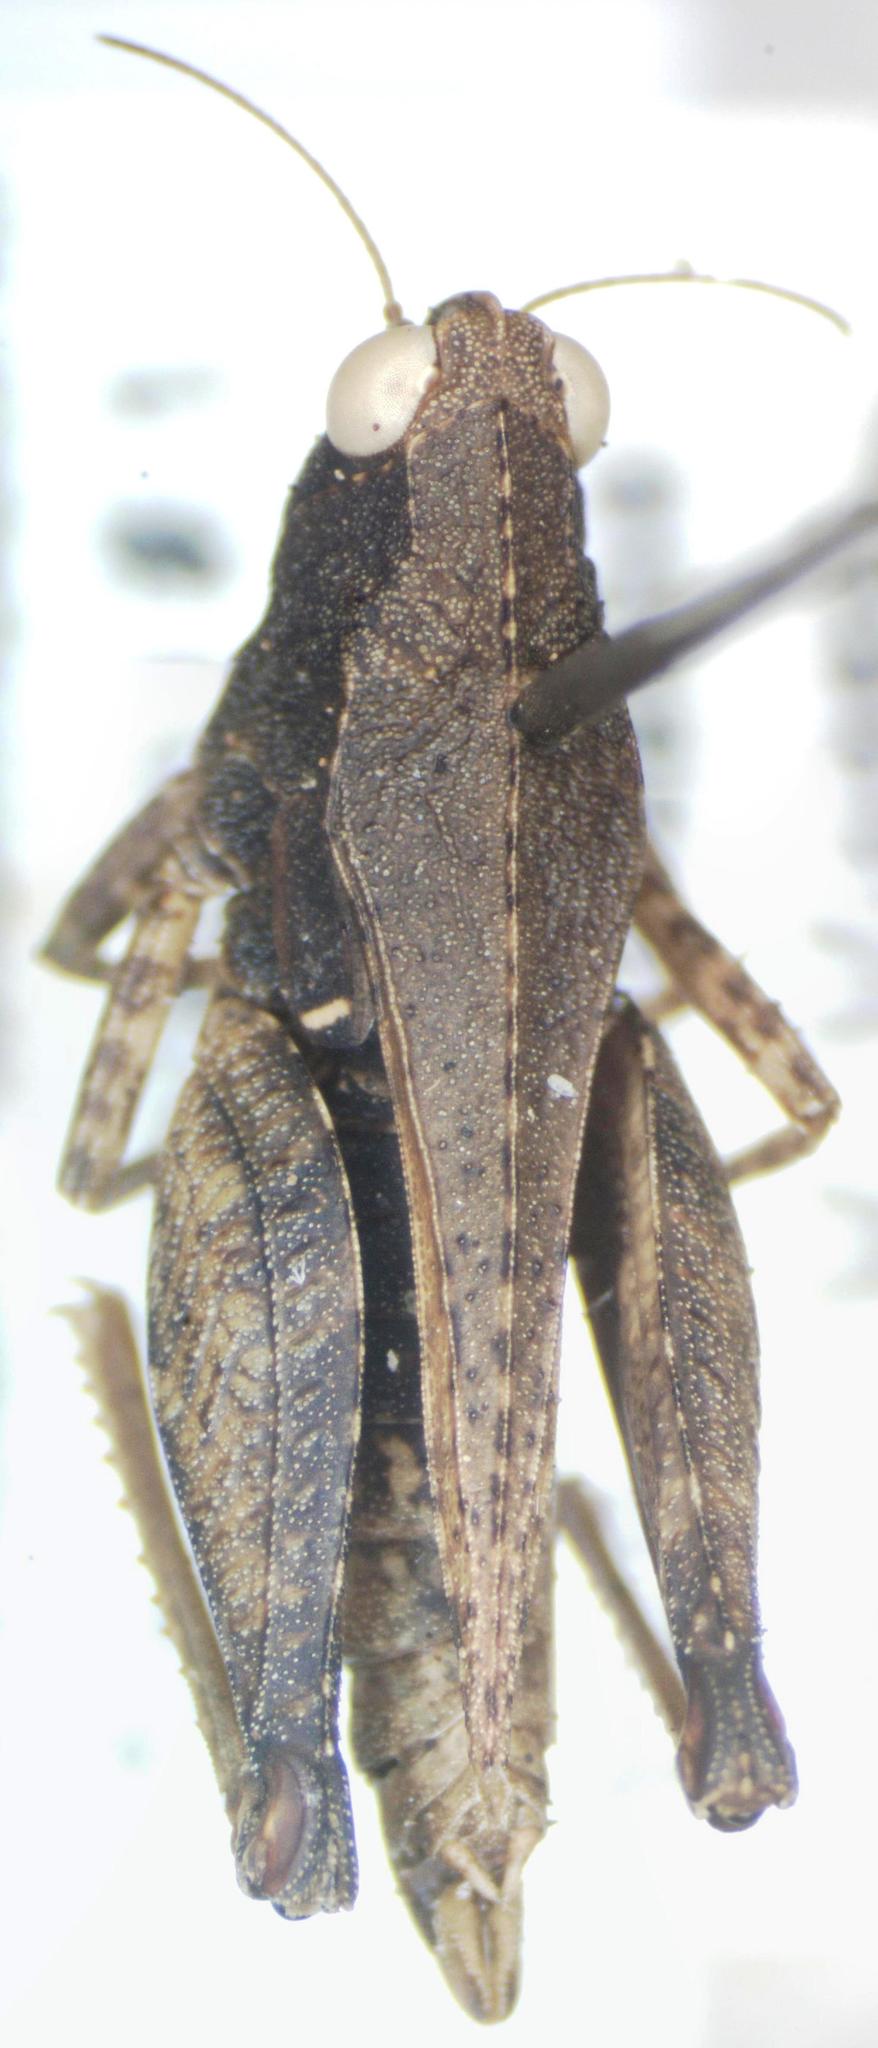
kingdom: Animalia
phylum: Arthropoda
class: Insecta
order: Orthoptera
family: Tetrigidae
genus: Tettigidea
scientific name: Tettigidea laterale
